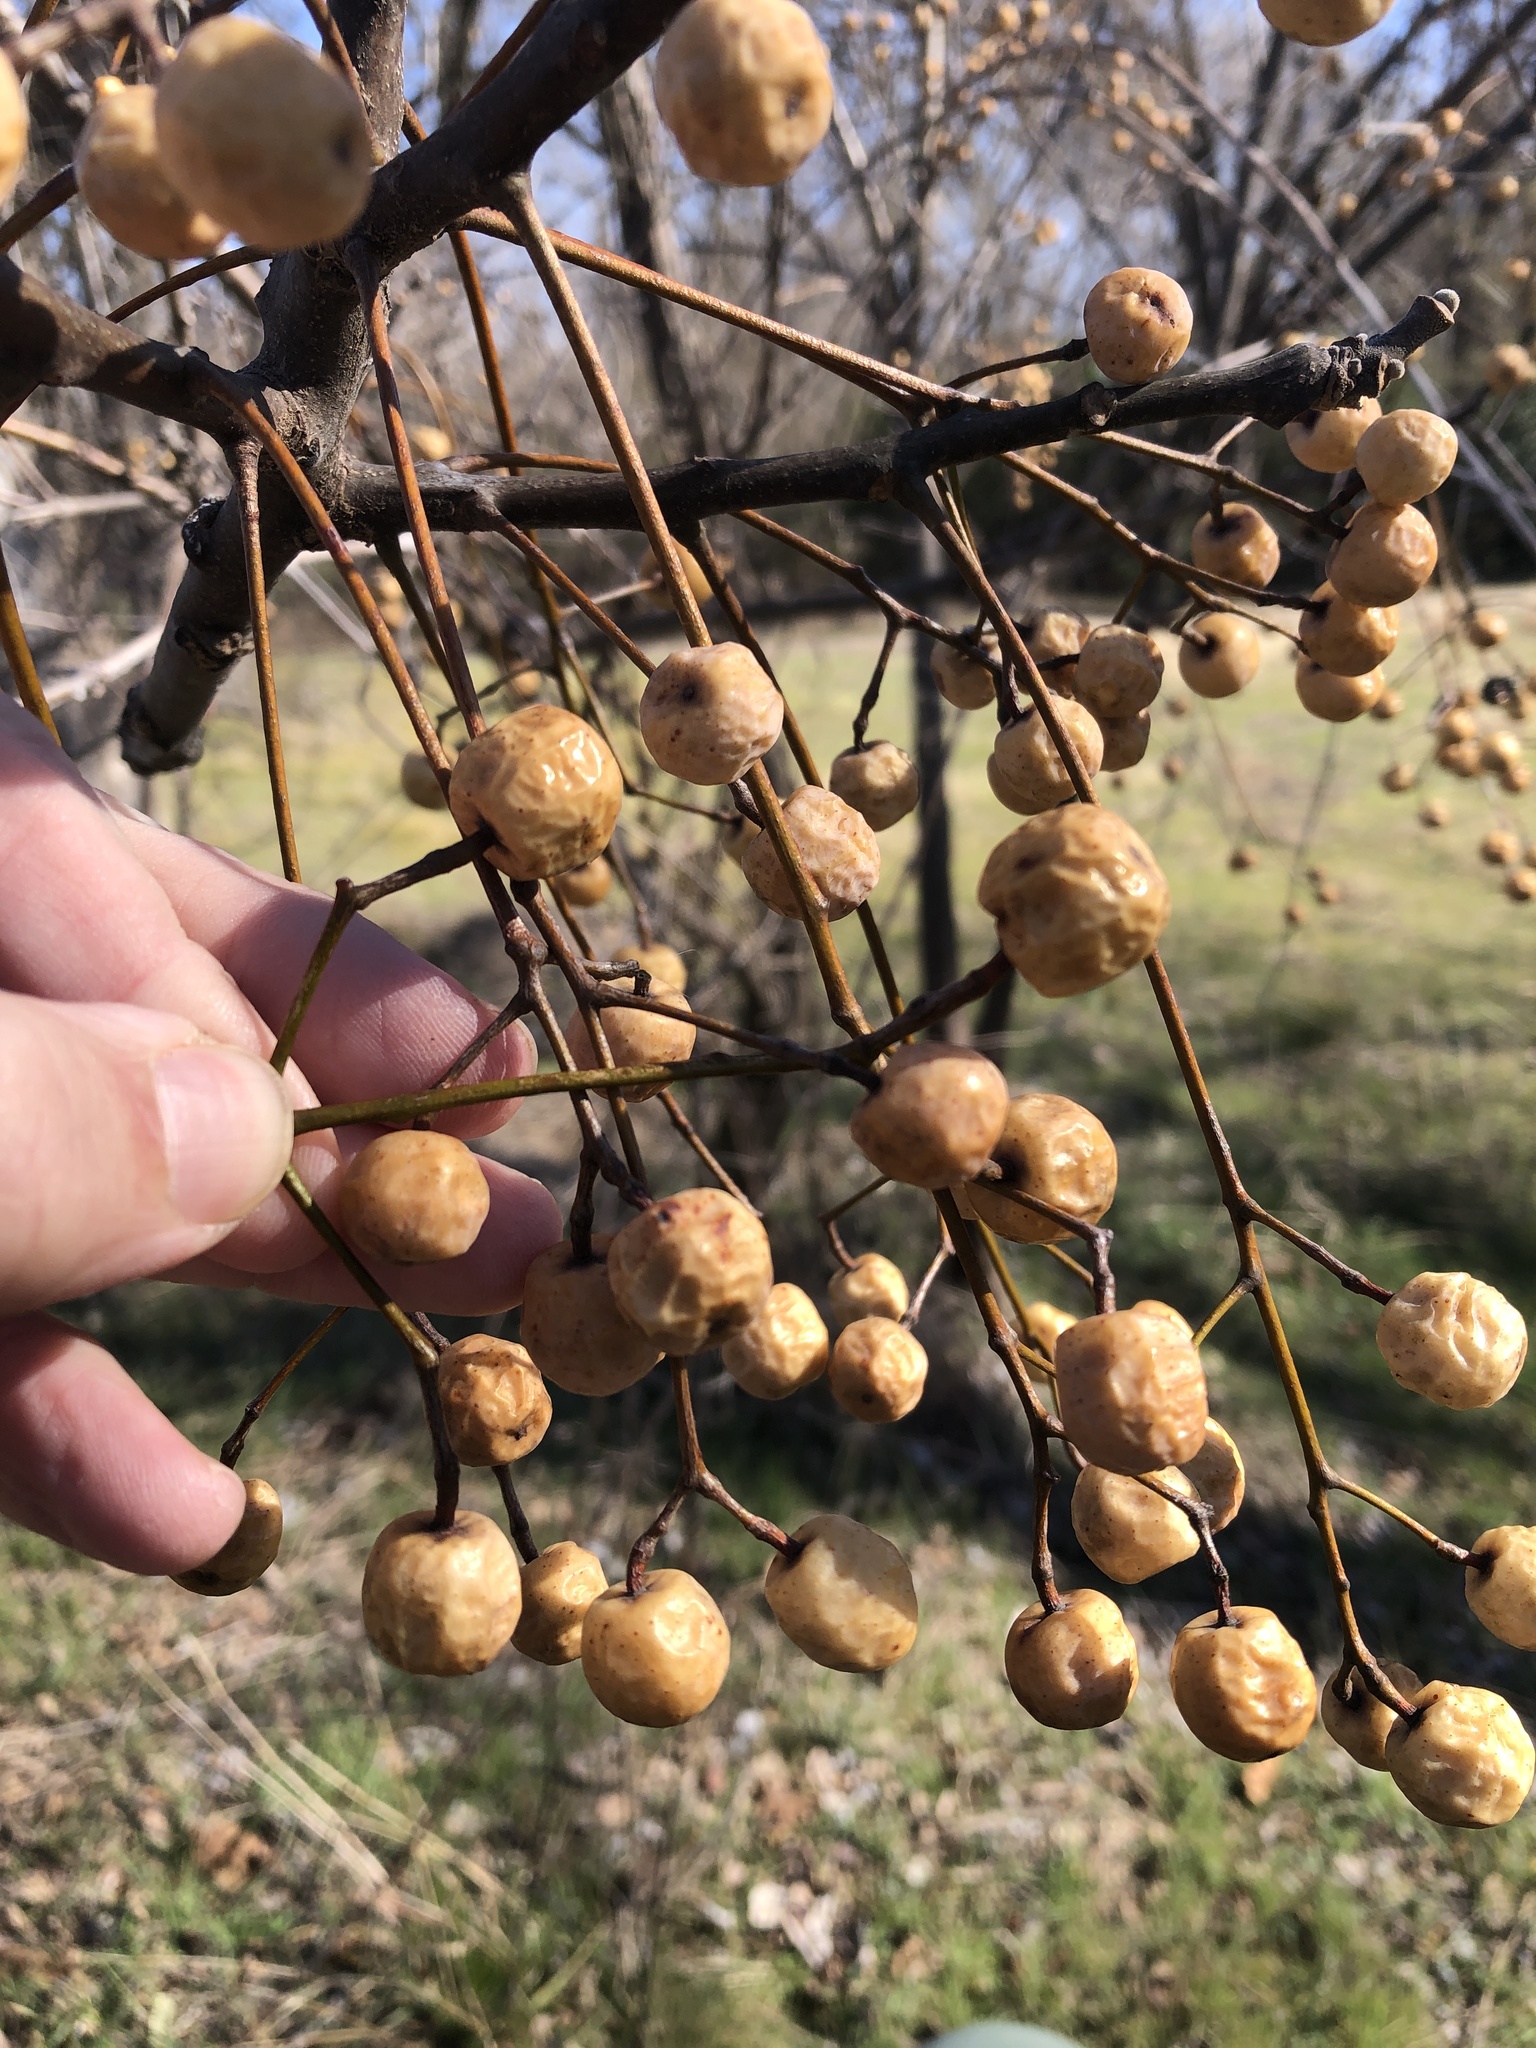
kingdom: Plantae
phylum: Tracheophyta
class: Magnoliopsida
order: Sapindales
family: Meliaceae
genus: Melia
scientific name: Melia azedarach
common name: Chinaberrytree
